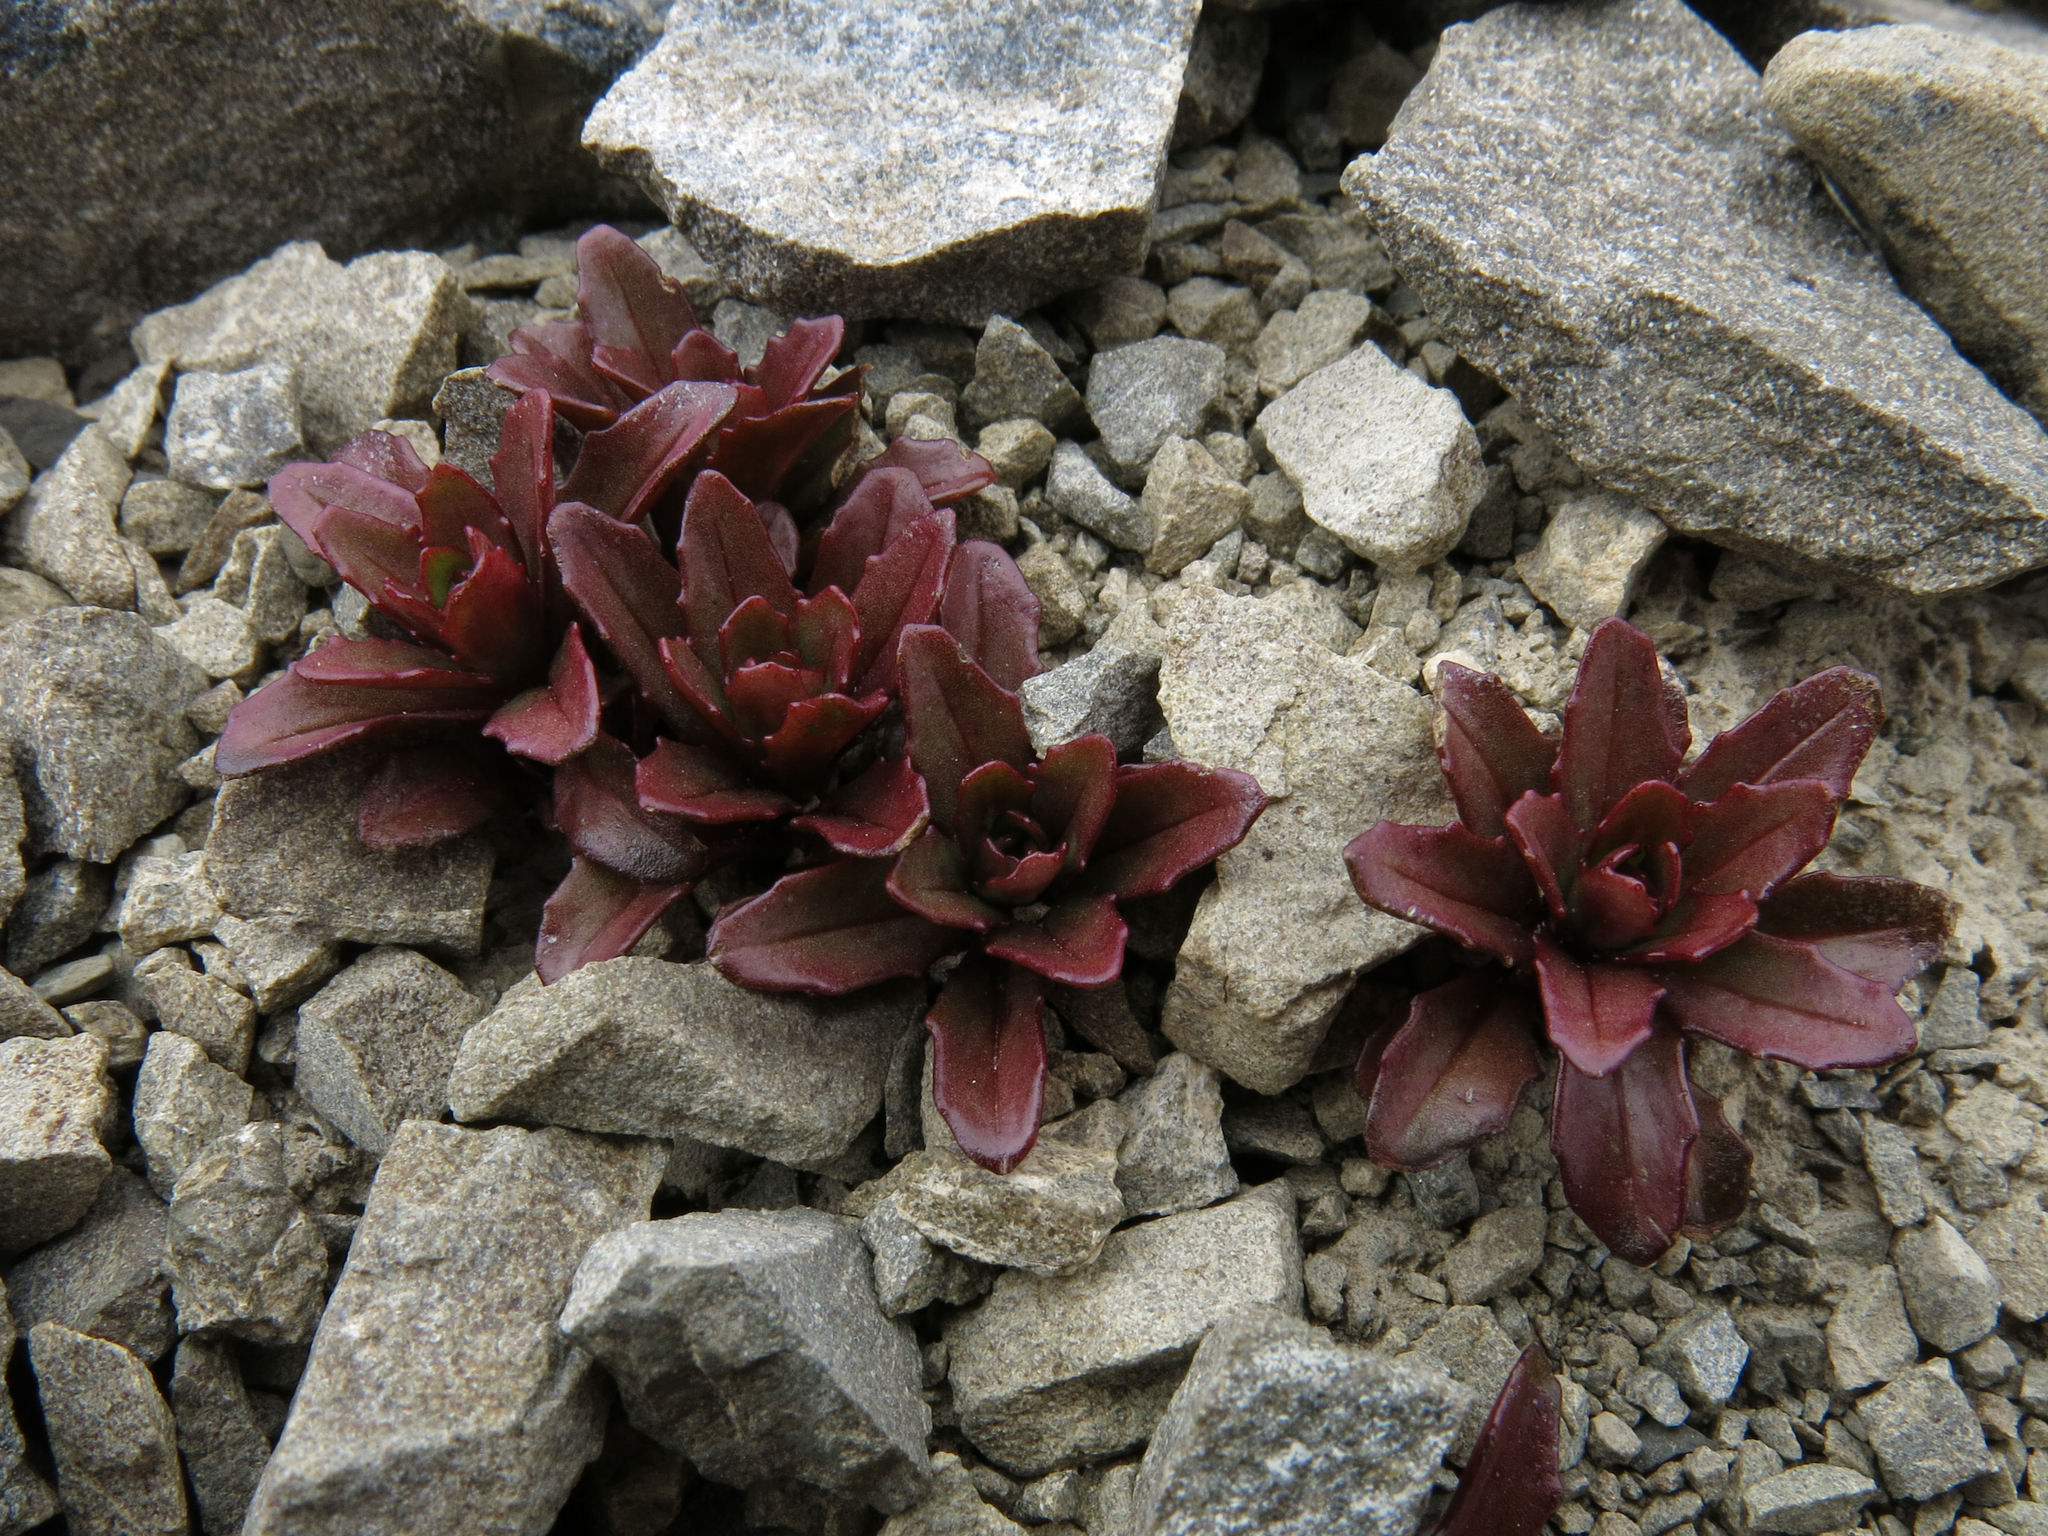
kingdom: Plantae
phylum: Tracheophyta
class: Magnoliopsida
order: Myrtales
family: Onagraceae
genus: Epilobium
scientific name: Epilobium pycnostachyum
